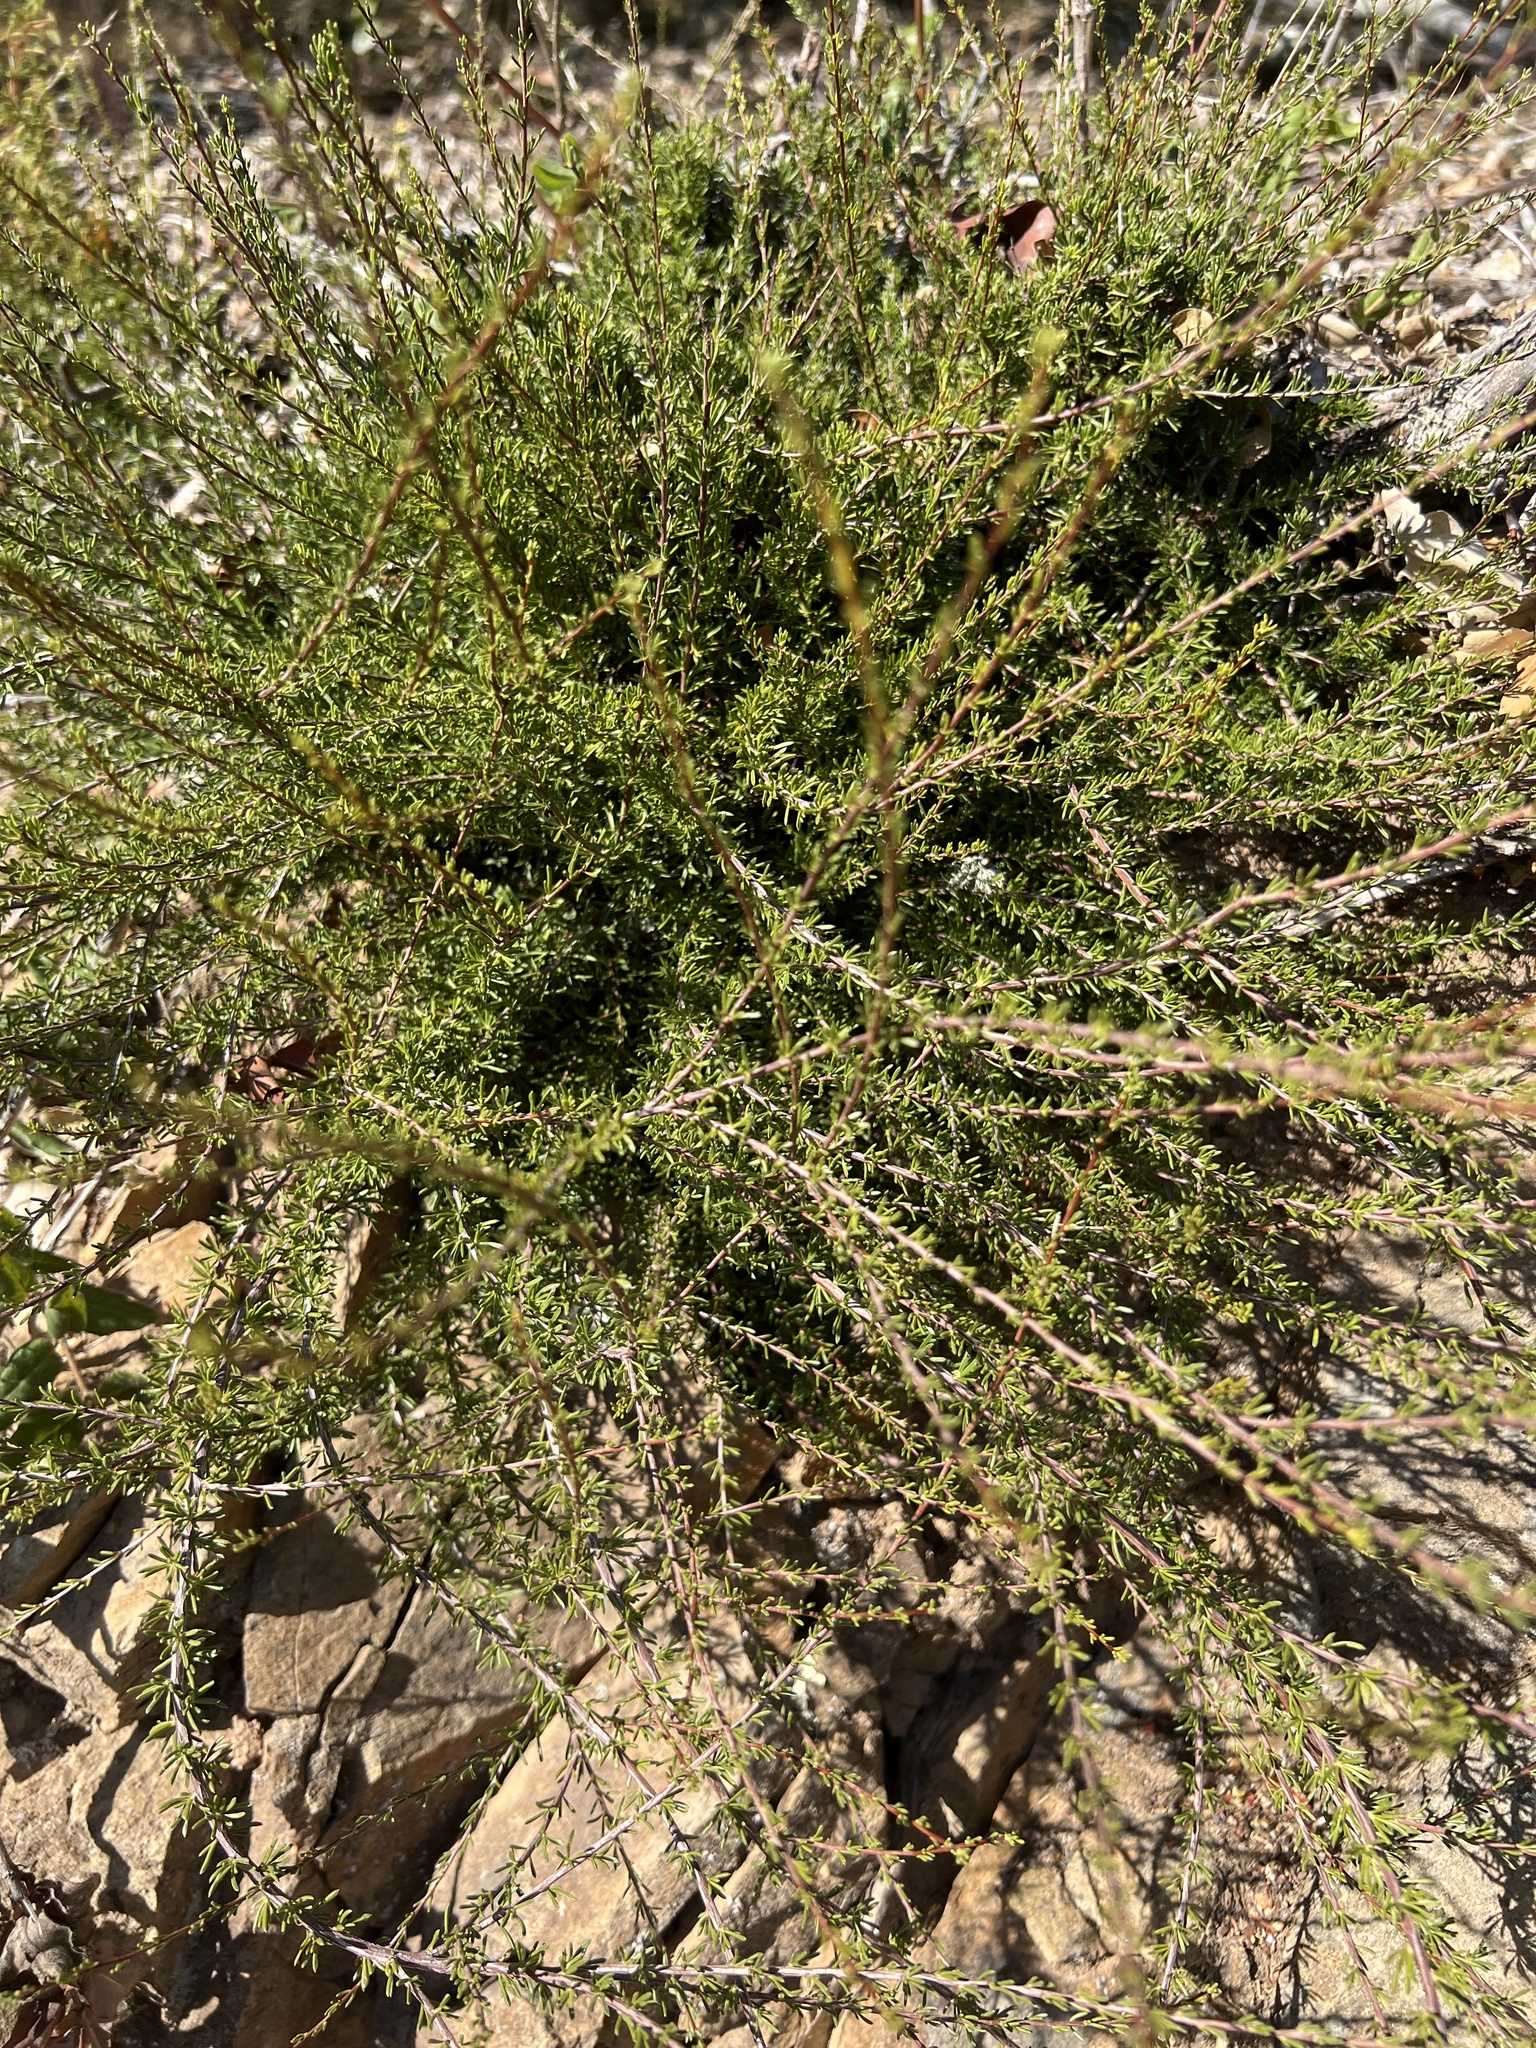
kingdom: Plantae
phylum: Tracheophyta
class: Magnoliopsida
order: Rosales
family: Rosaceae
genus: Adenostoma
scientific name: Adenostoma fasciculatum
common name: Chamise
